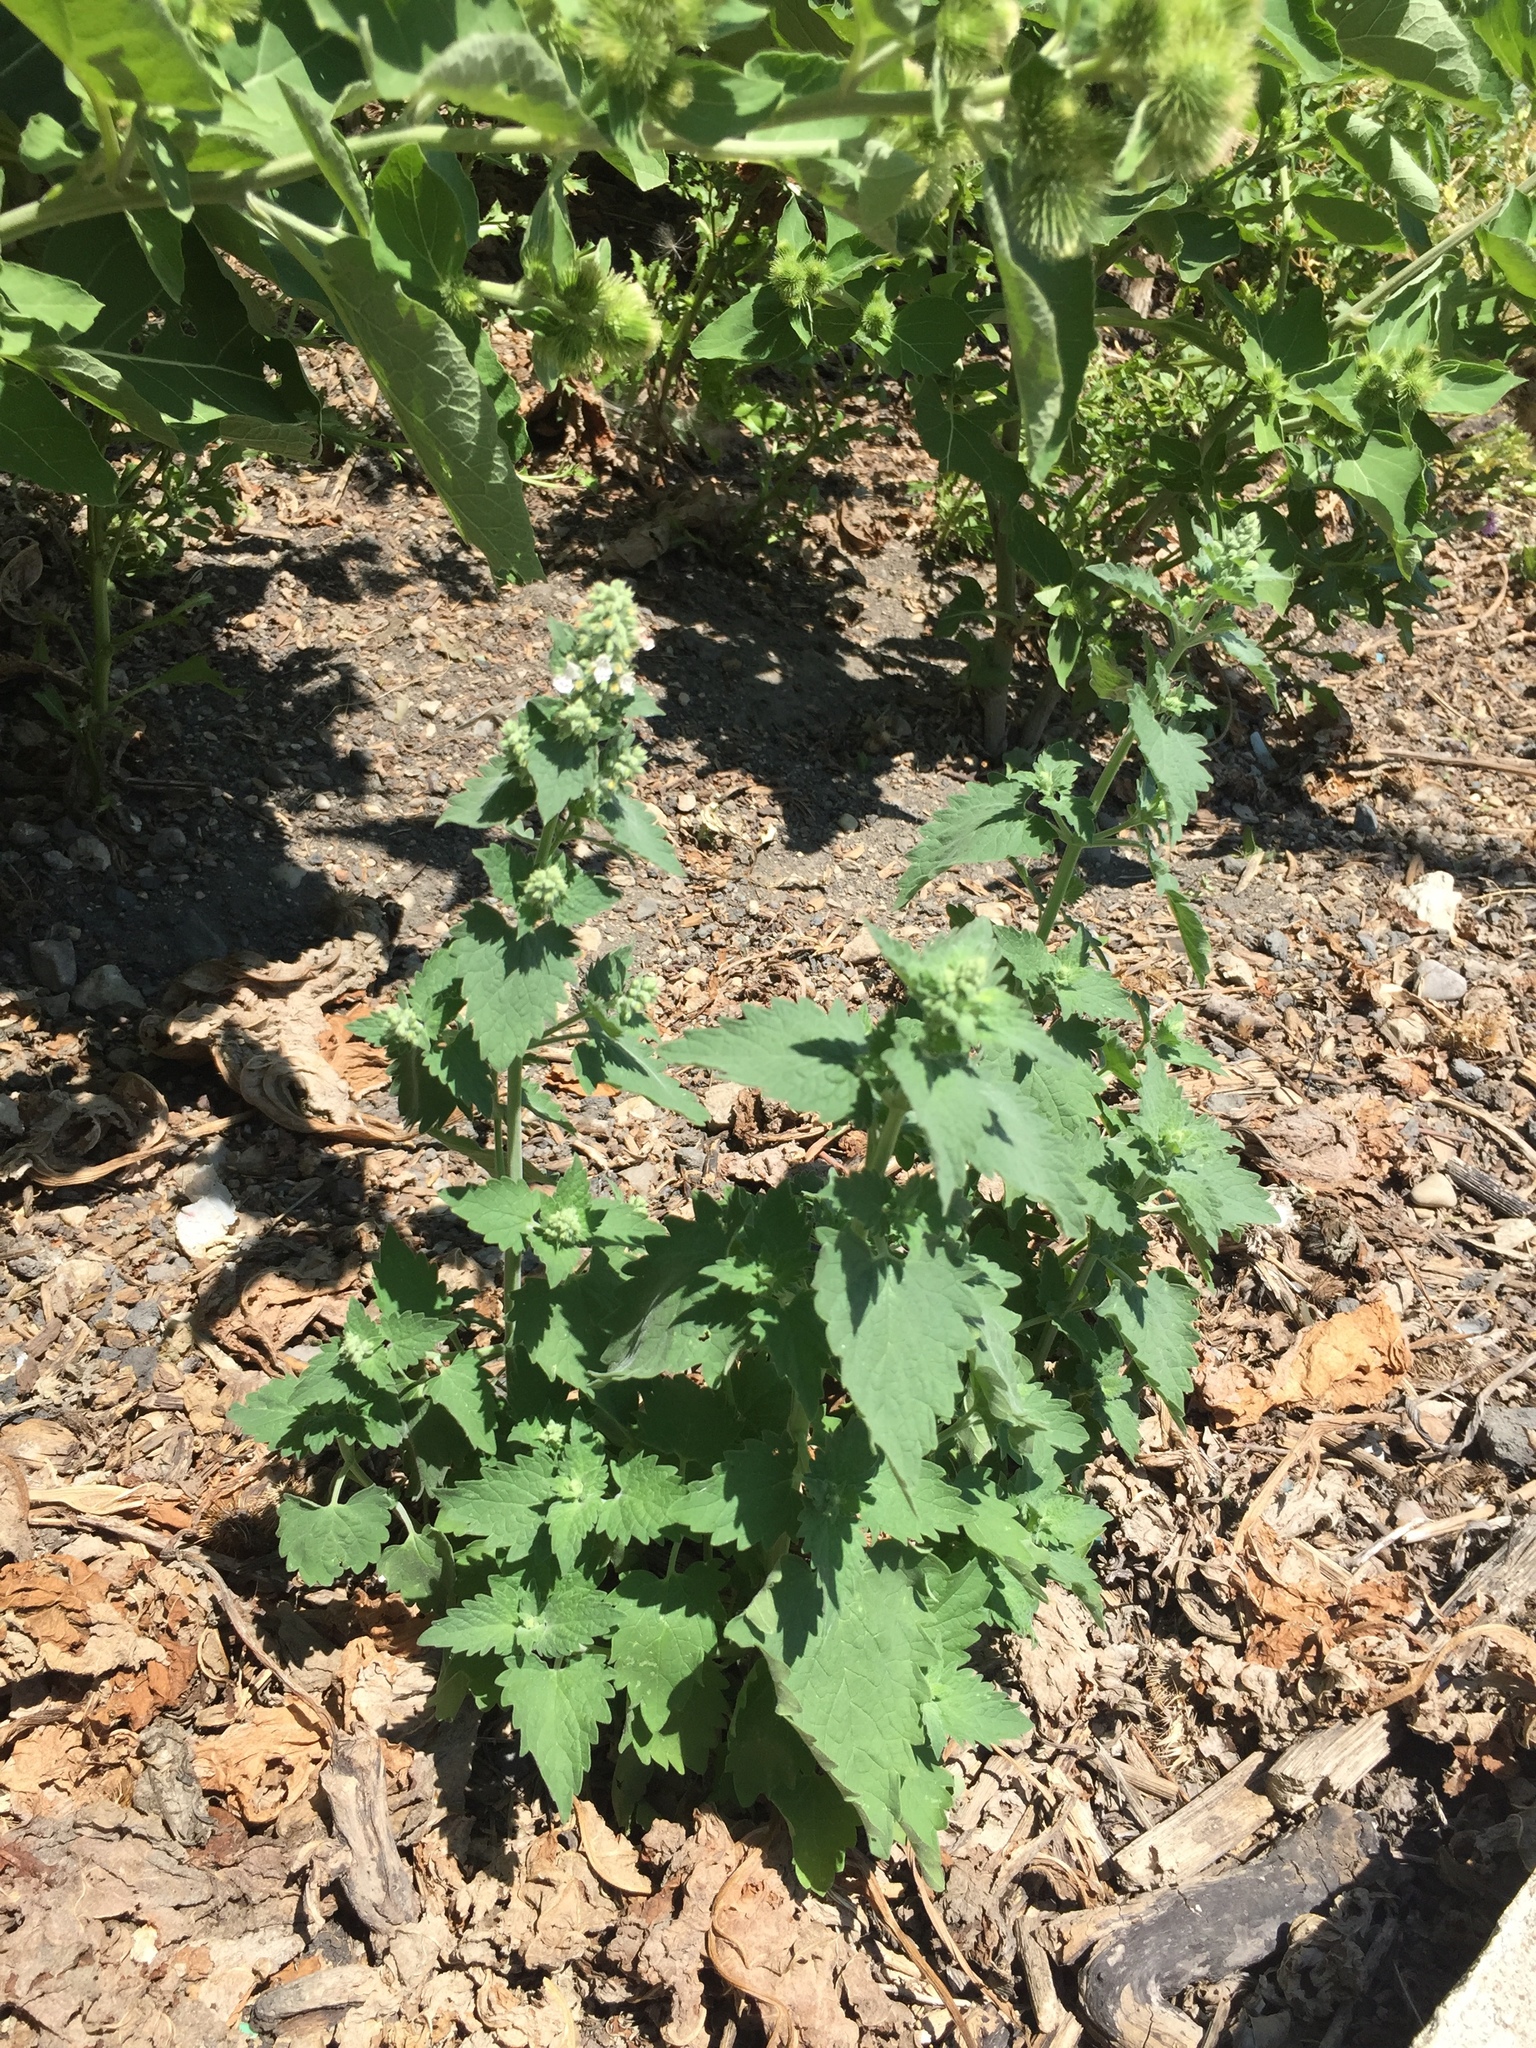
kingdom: Plantae
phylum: Tracheophyta
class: Magnoliopsida
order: Lamiales
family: Lamiaceae
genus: Nepeta
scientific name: Nepeta cataria
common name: Catnip
